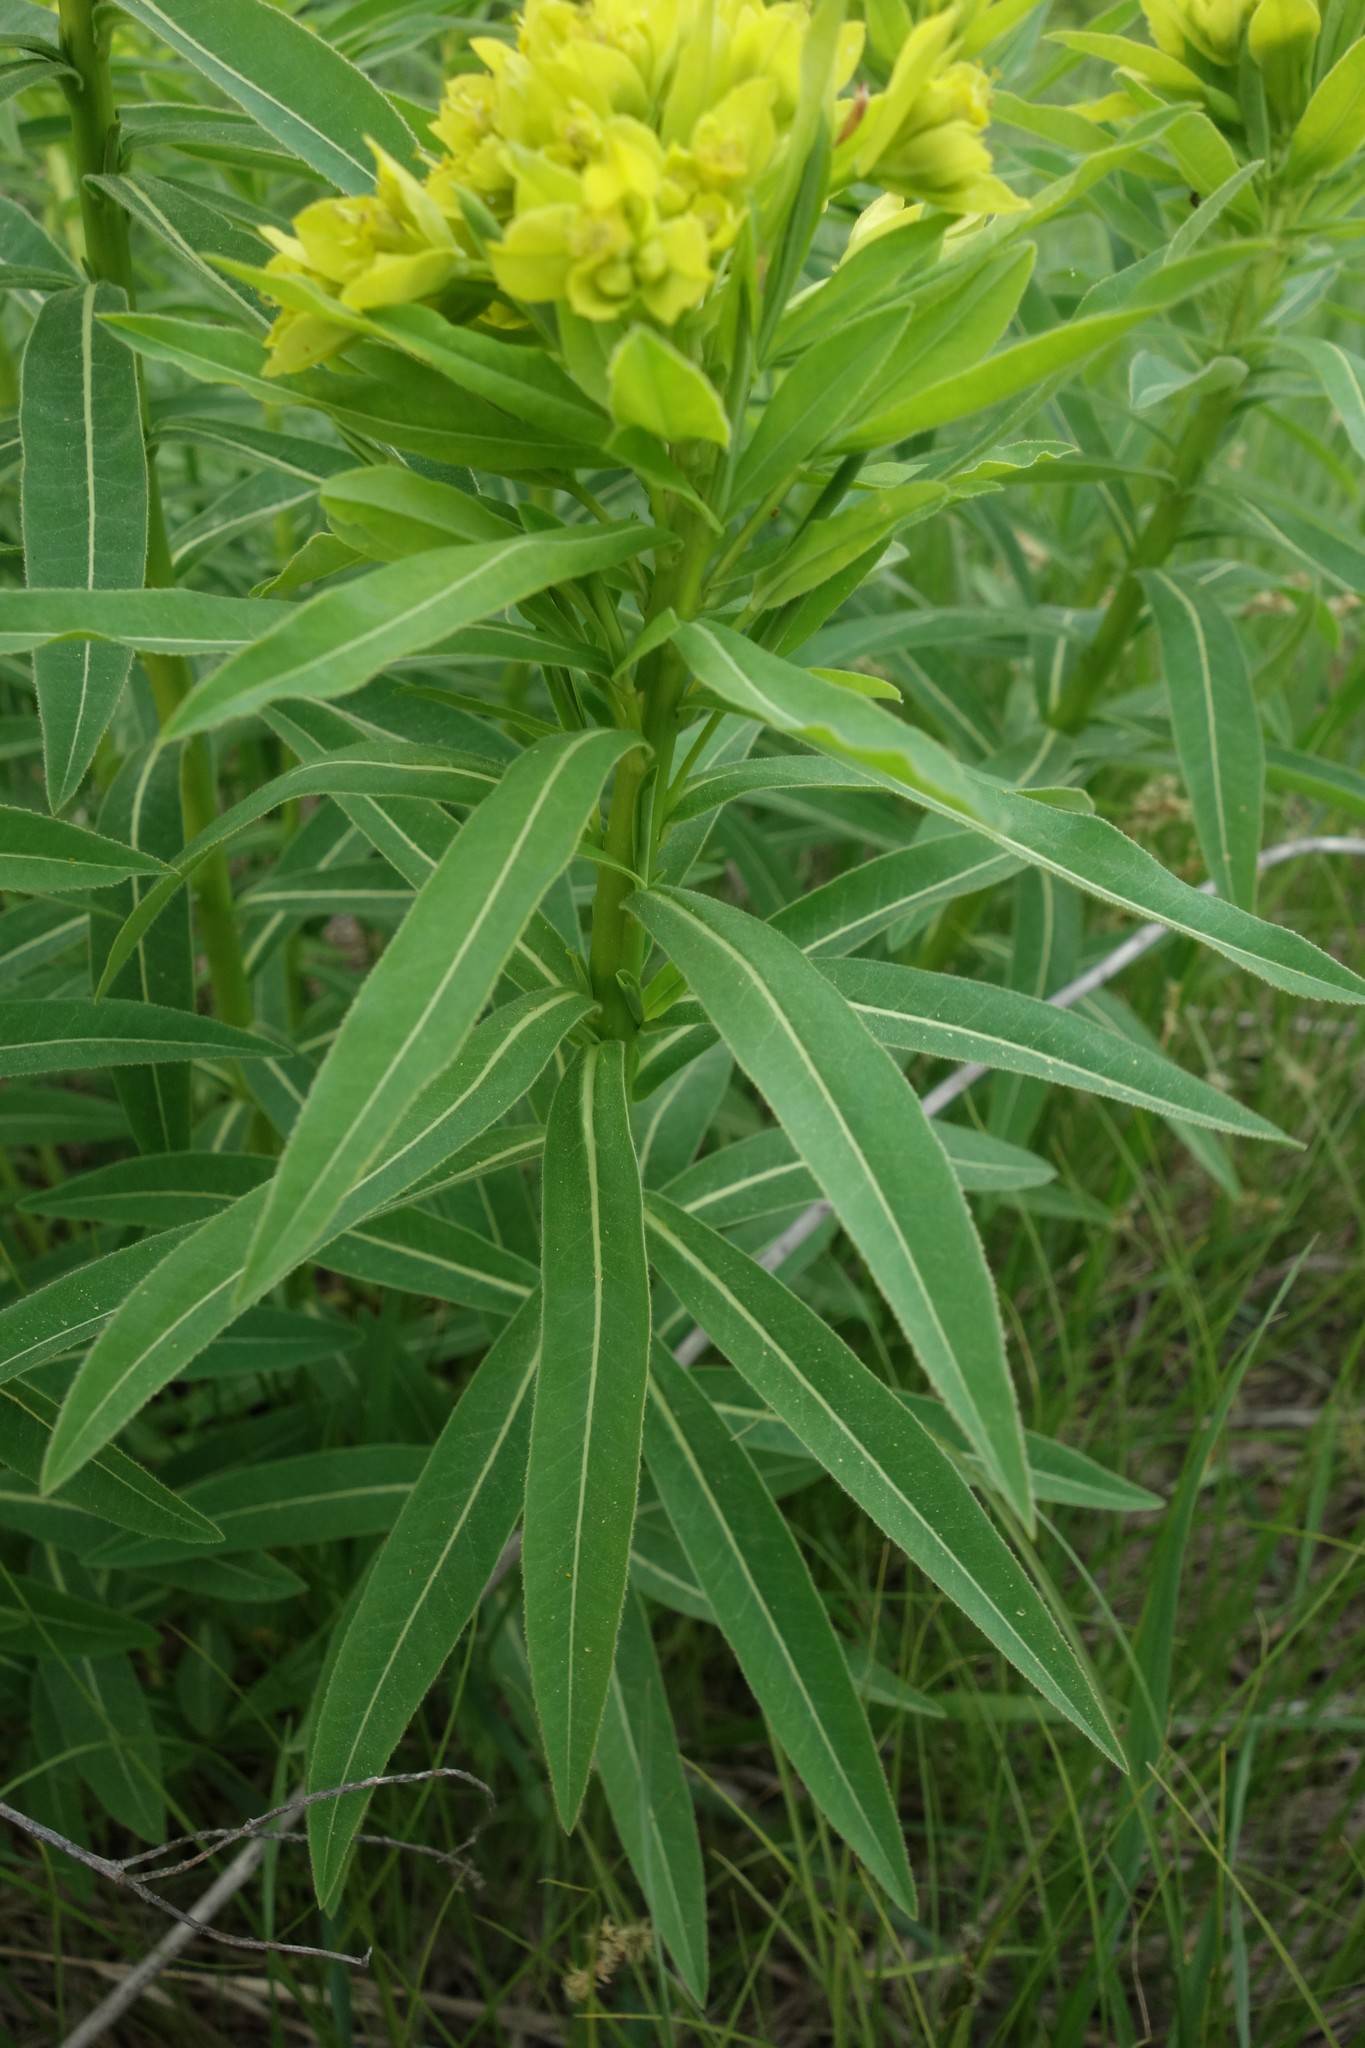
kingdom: Plantae
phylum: Tracheophyta
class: Magnoliopsida
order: Malpighiales
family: Euphorbiaceae
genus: Euphorbia
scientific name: Euphorbia semivillosa
